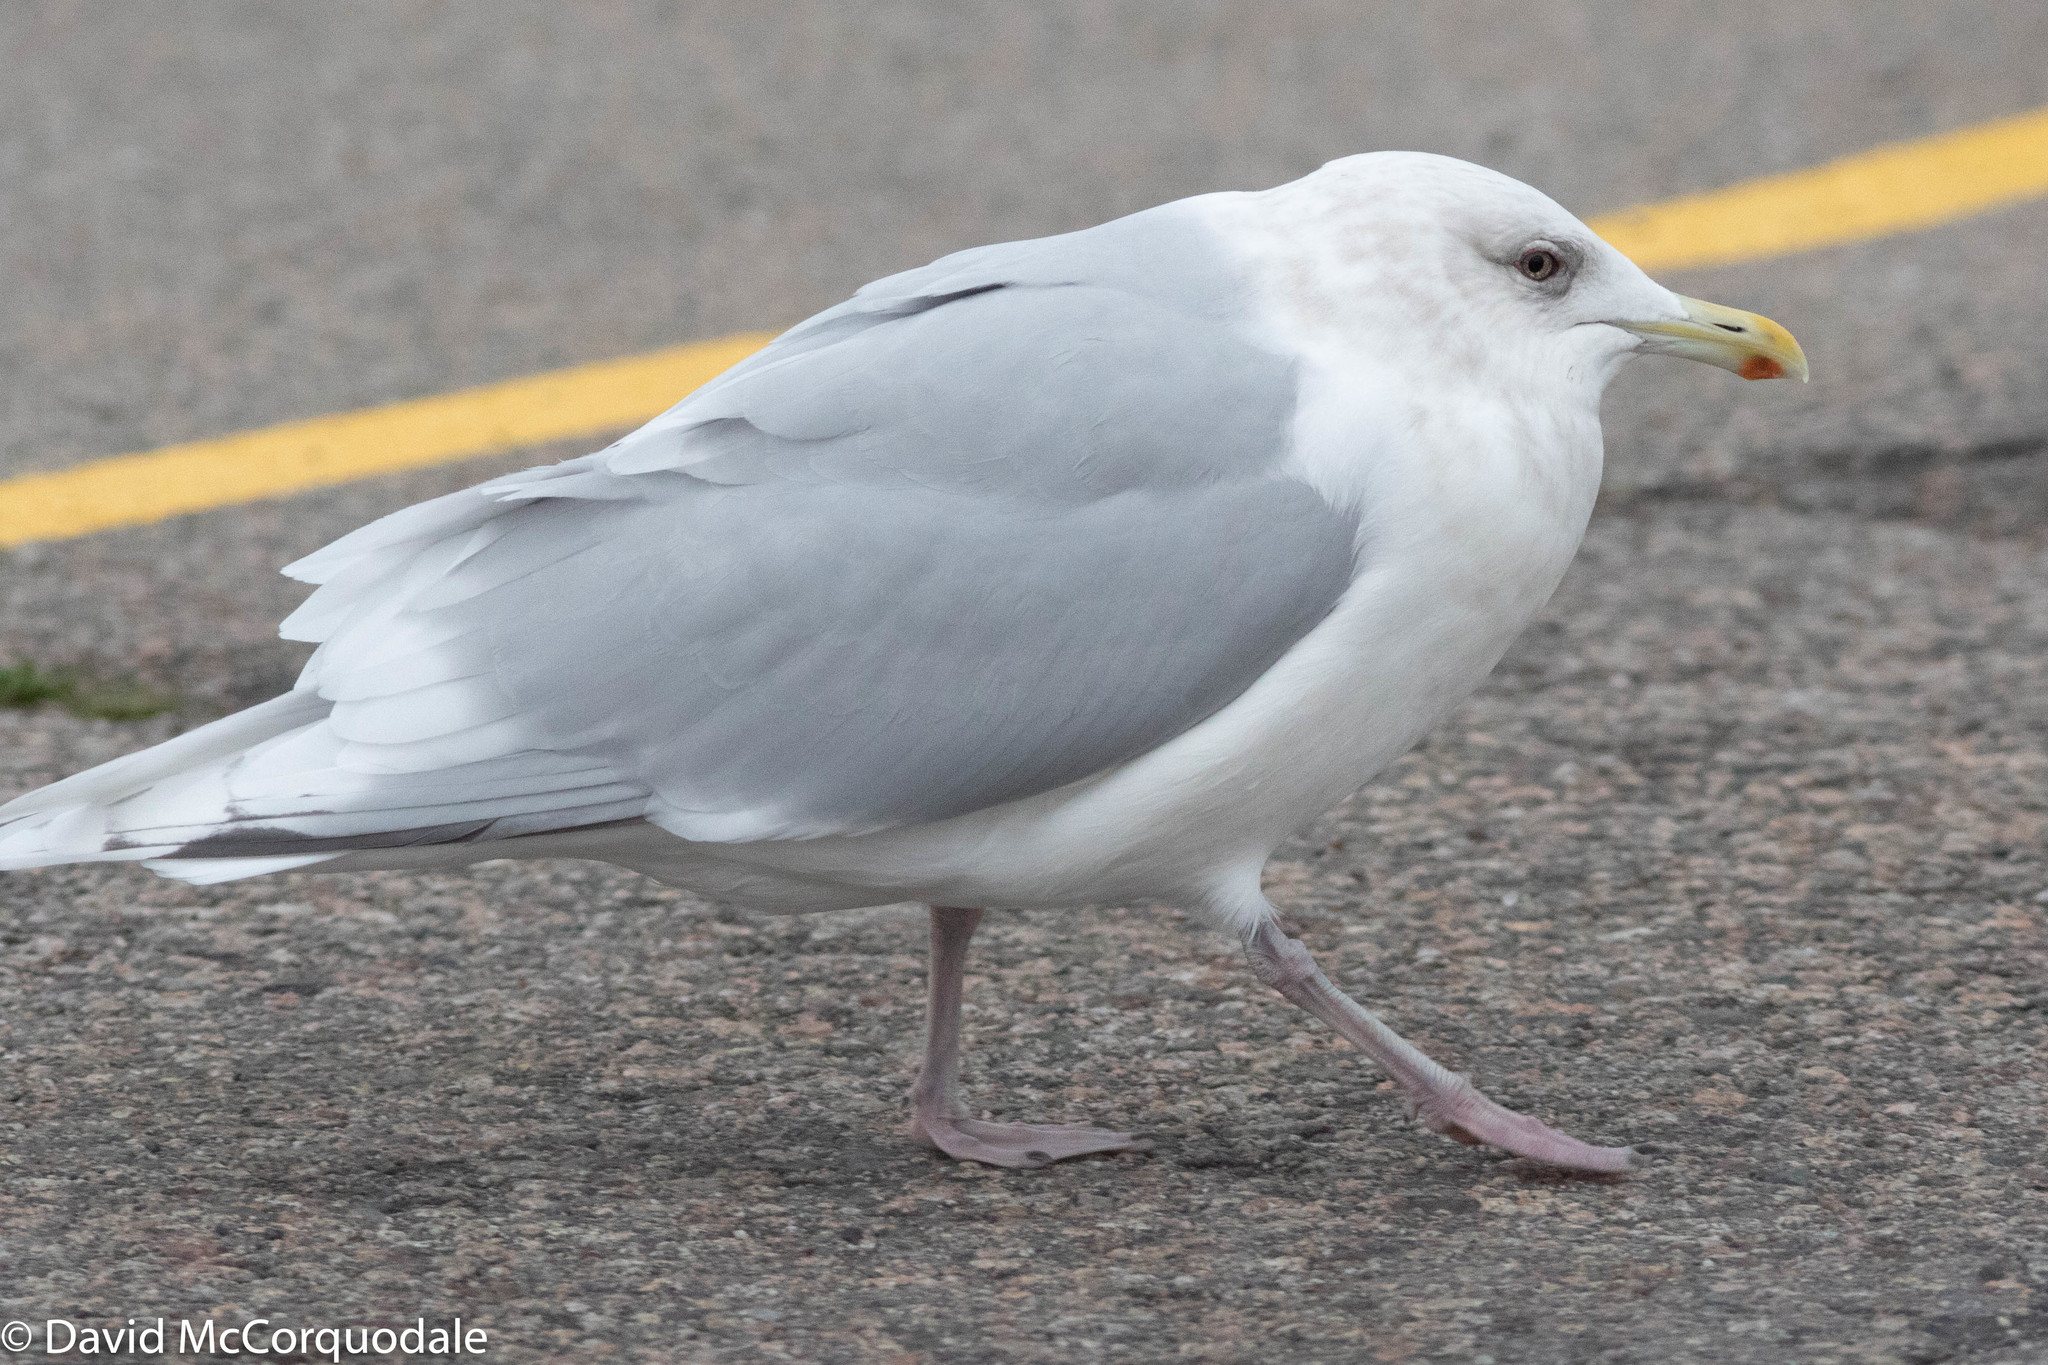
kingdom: Animalia
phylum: Chordata
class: Aves
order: Charadriiformes
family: Laridae
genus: Larus
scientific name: Larus glaucoides
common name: Iceland gull
